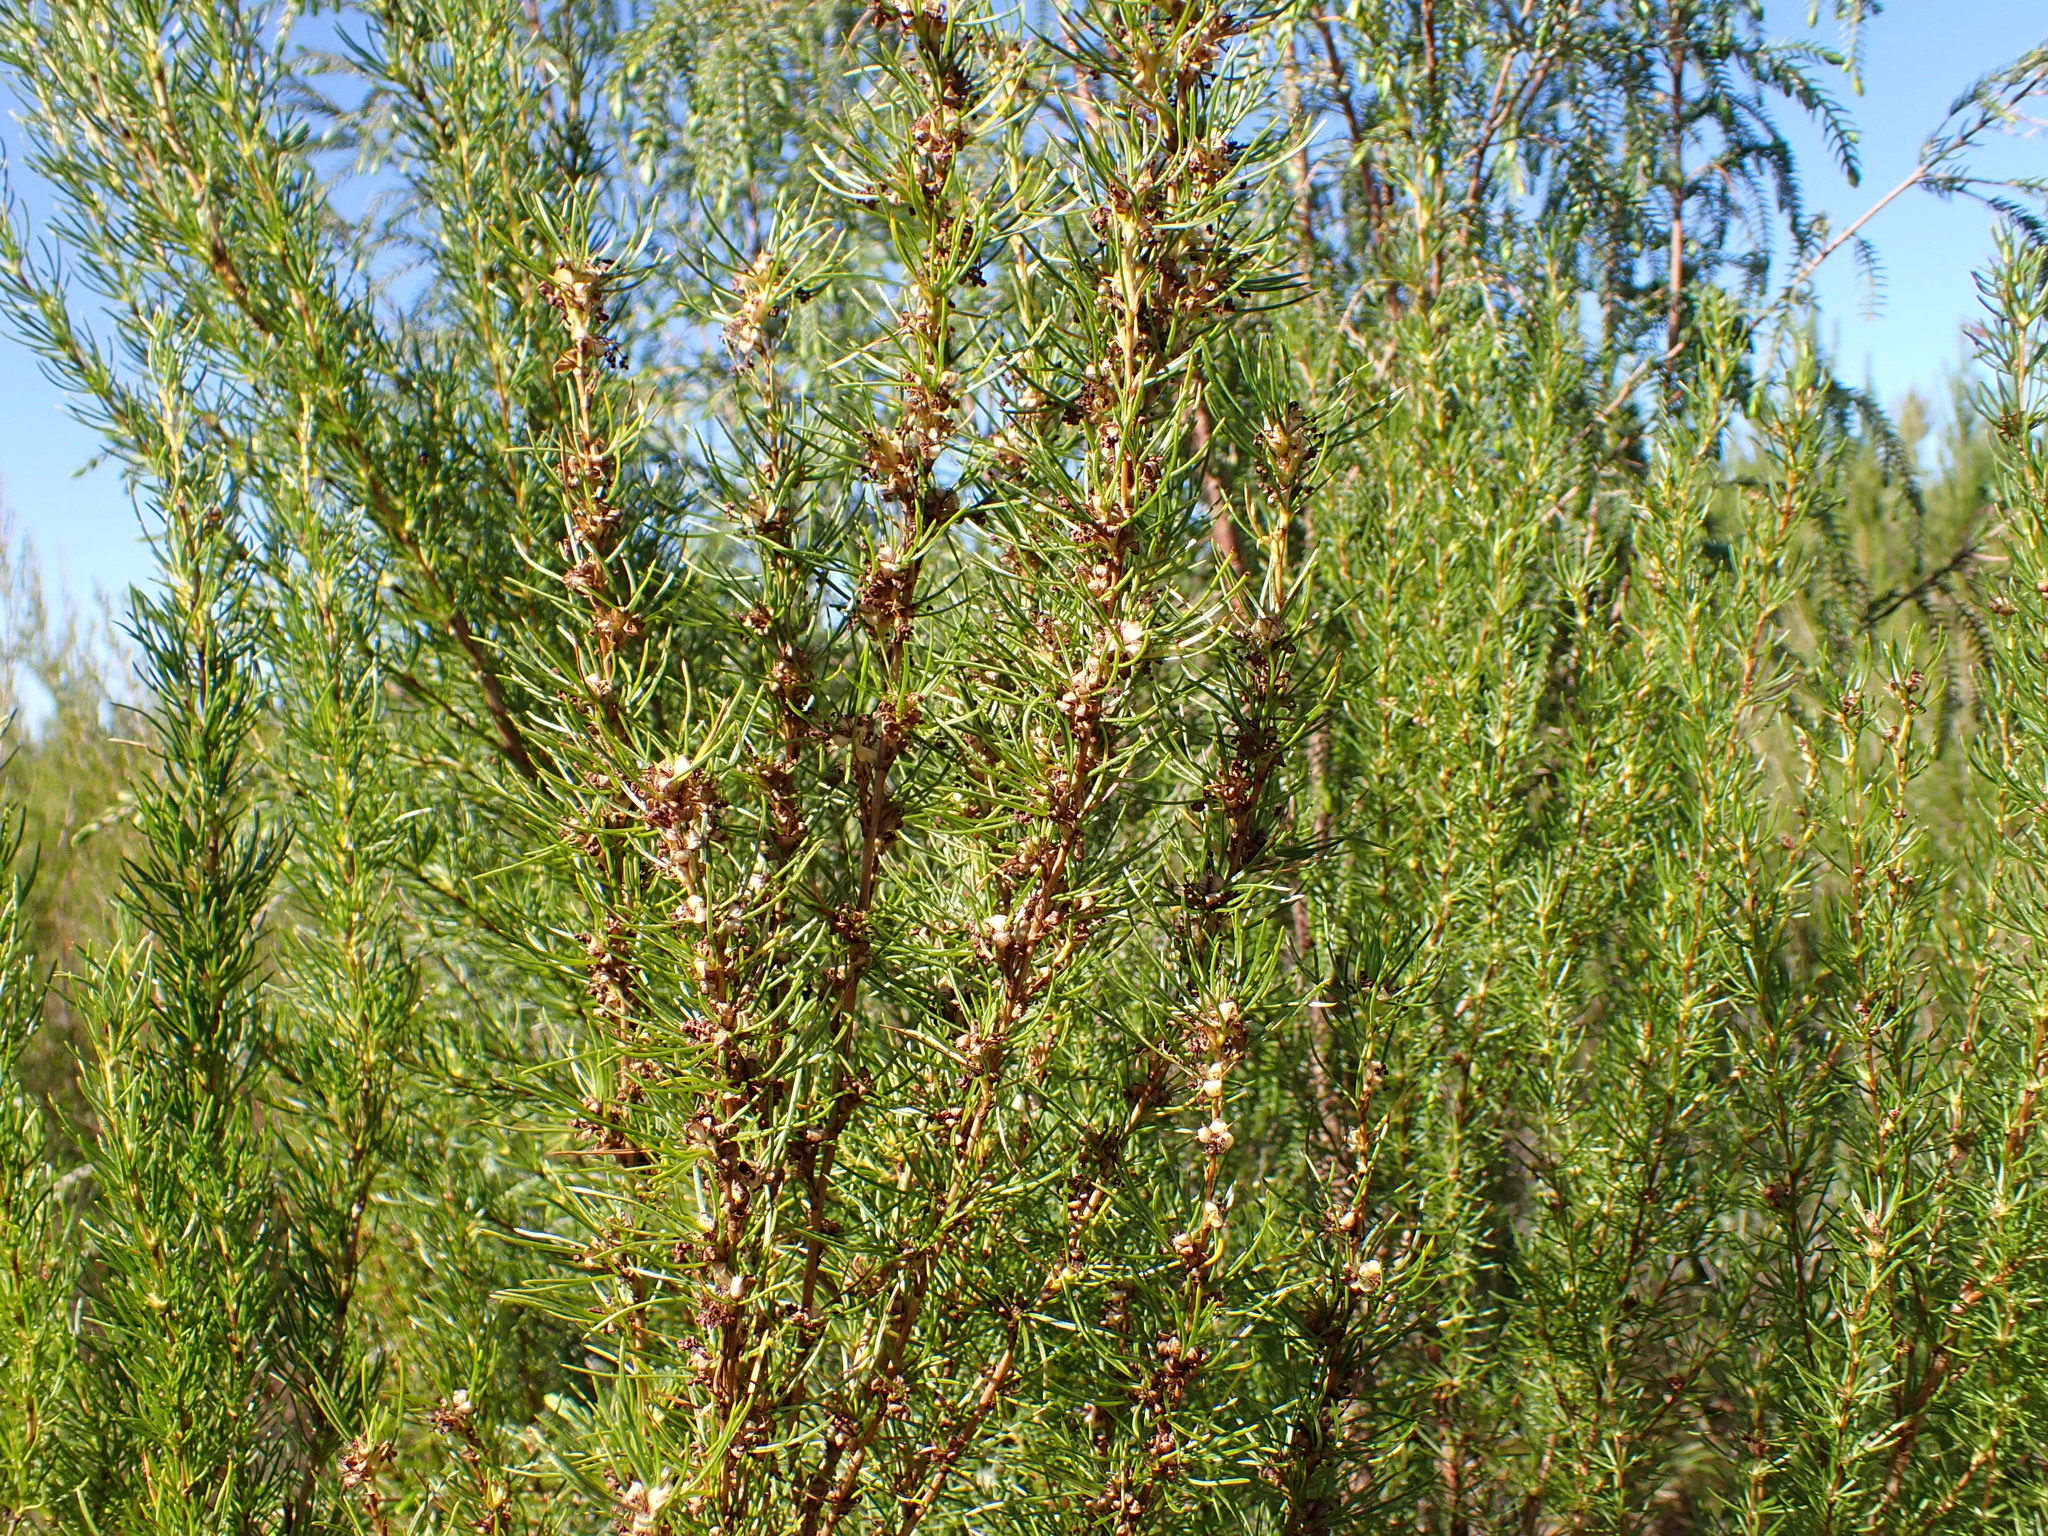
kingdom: Plantae
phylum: Tracheophyta
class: Magnoliopsida
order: Rosales
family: Rosaceae
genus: Cliffortia
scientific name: Cliffortia burchellii
